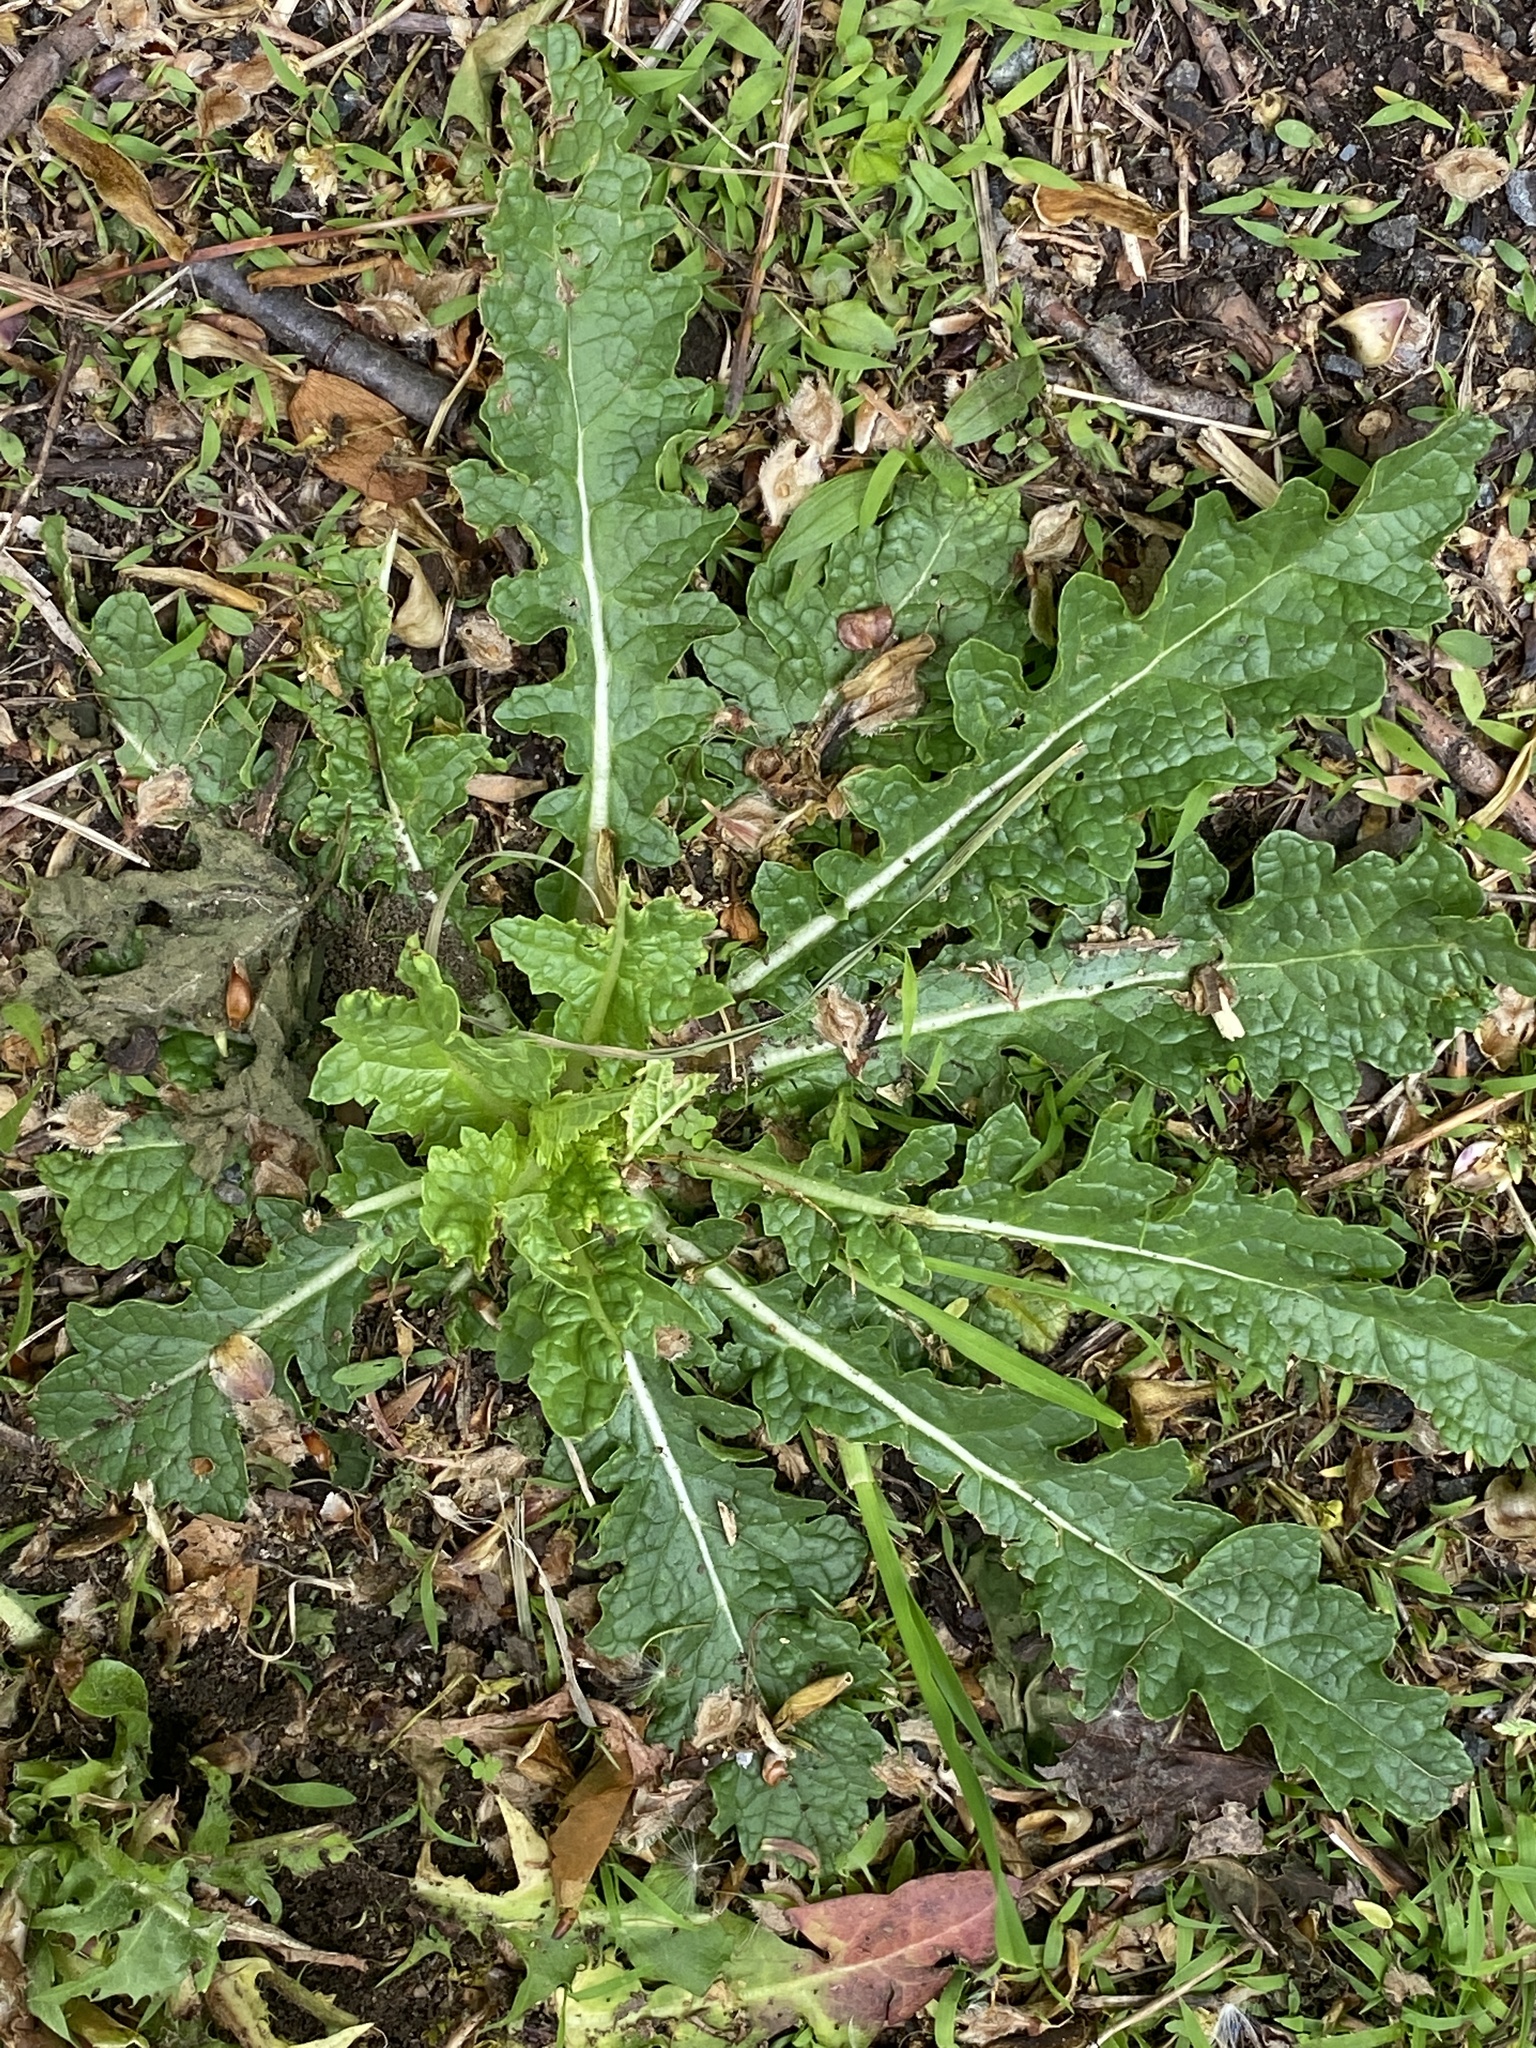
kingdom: Plantae
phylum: Tracheophyta
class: Magnoliopsida
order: Lamiales
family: Scrophulariaceae
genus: Verbascum
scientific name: Verbascum blattaria
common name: Moth mullein
